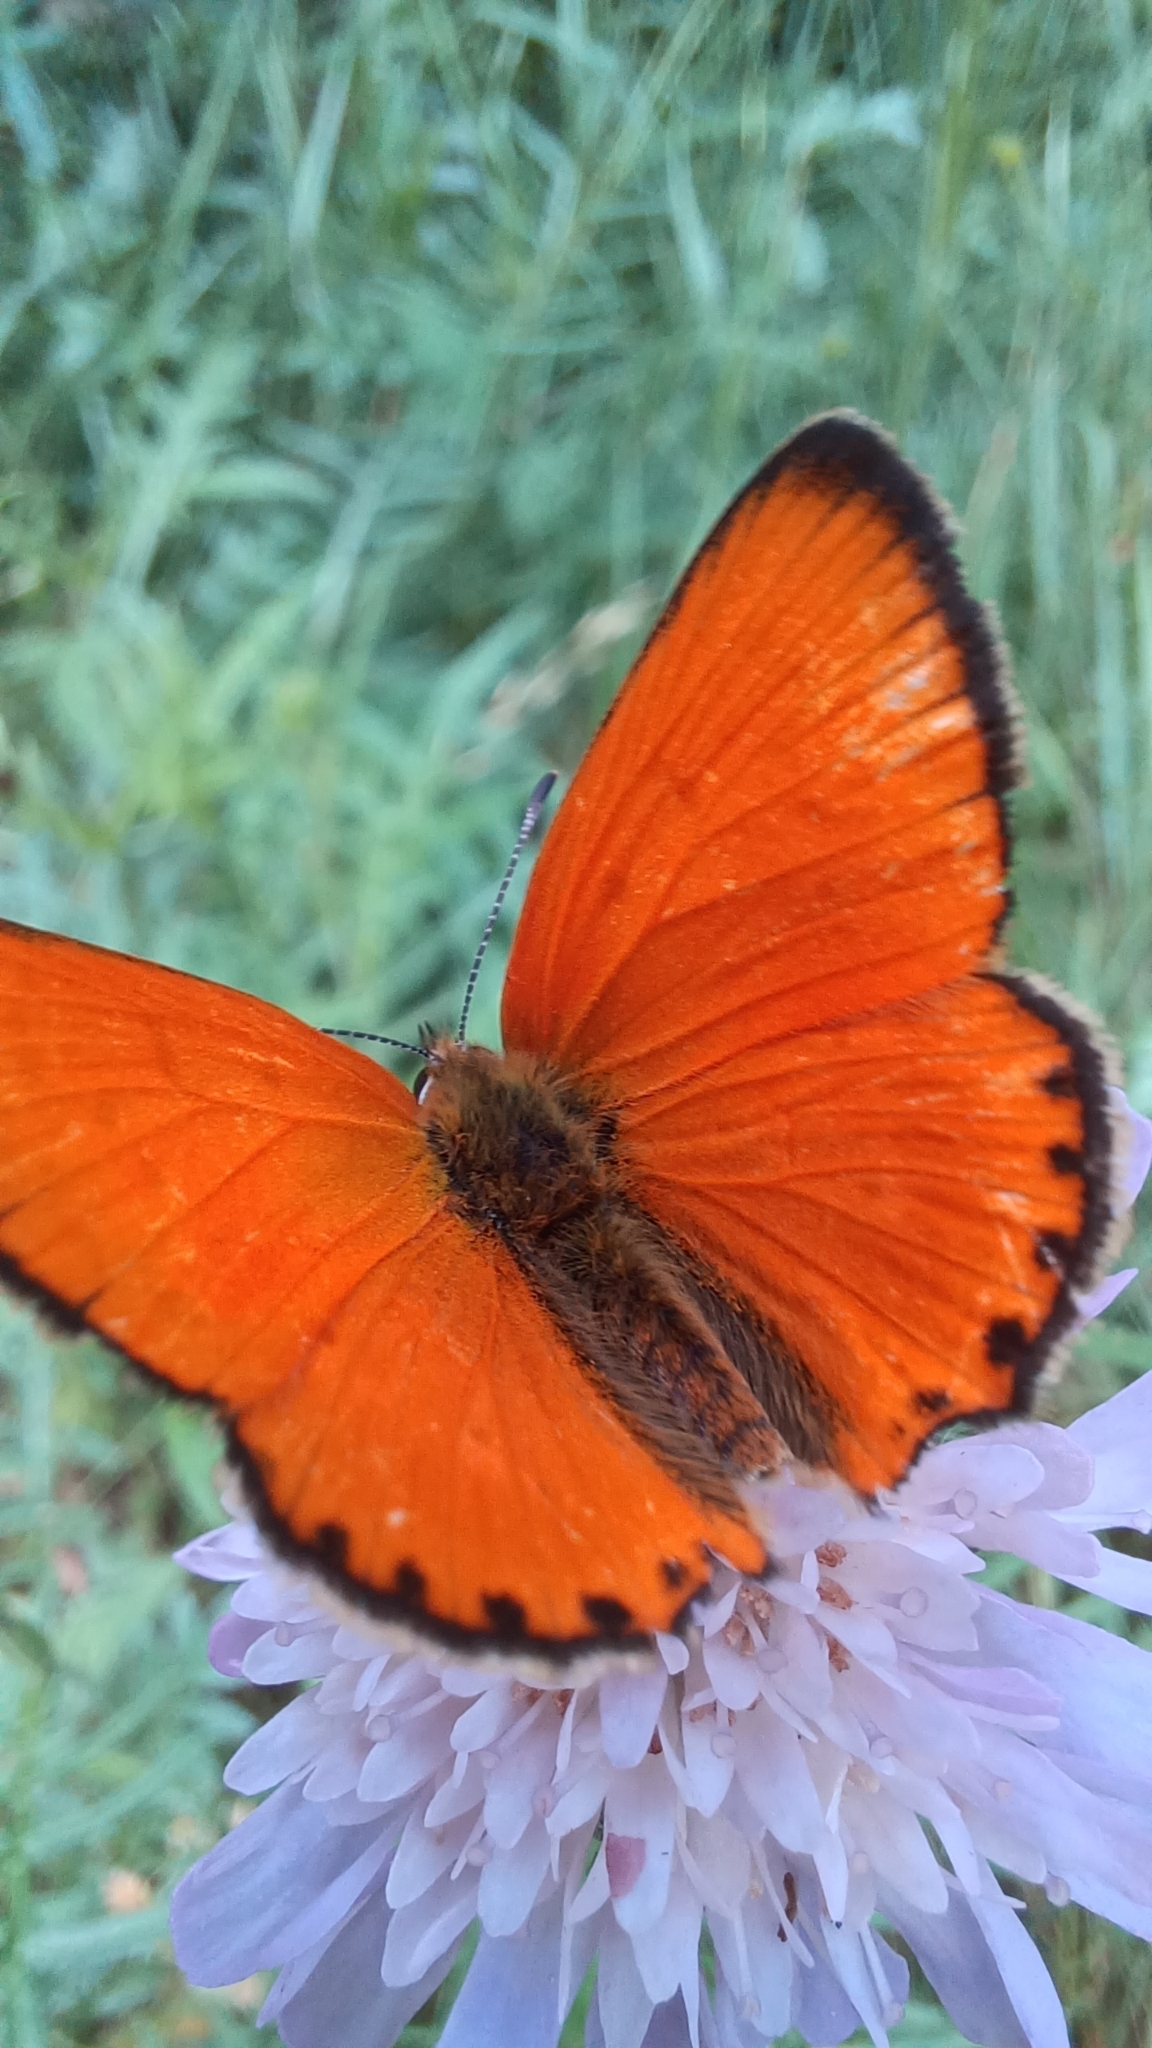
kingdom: Animalia
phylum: Arthropoda
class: Insecta
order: Lepidoptera
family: Lycaenidae
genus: Lycaena
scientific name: Lycaena virgaureae
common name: Scarce copper
